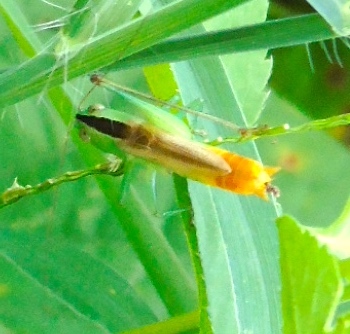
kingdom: Animalia
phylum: Arthropoda
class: Insecta
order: Orthoptera
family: Tettigoniidae
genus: Conocephalus
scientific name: Conocephalus
